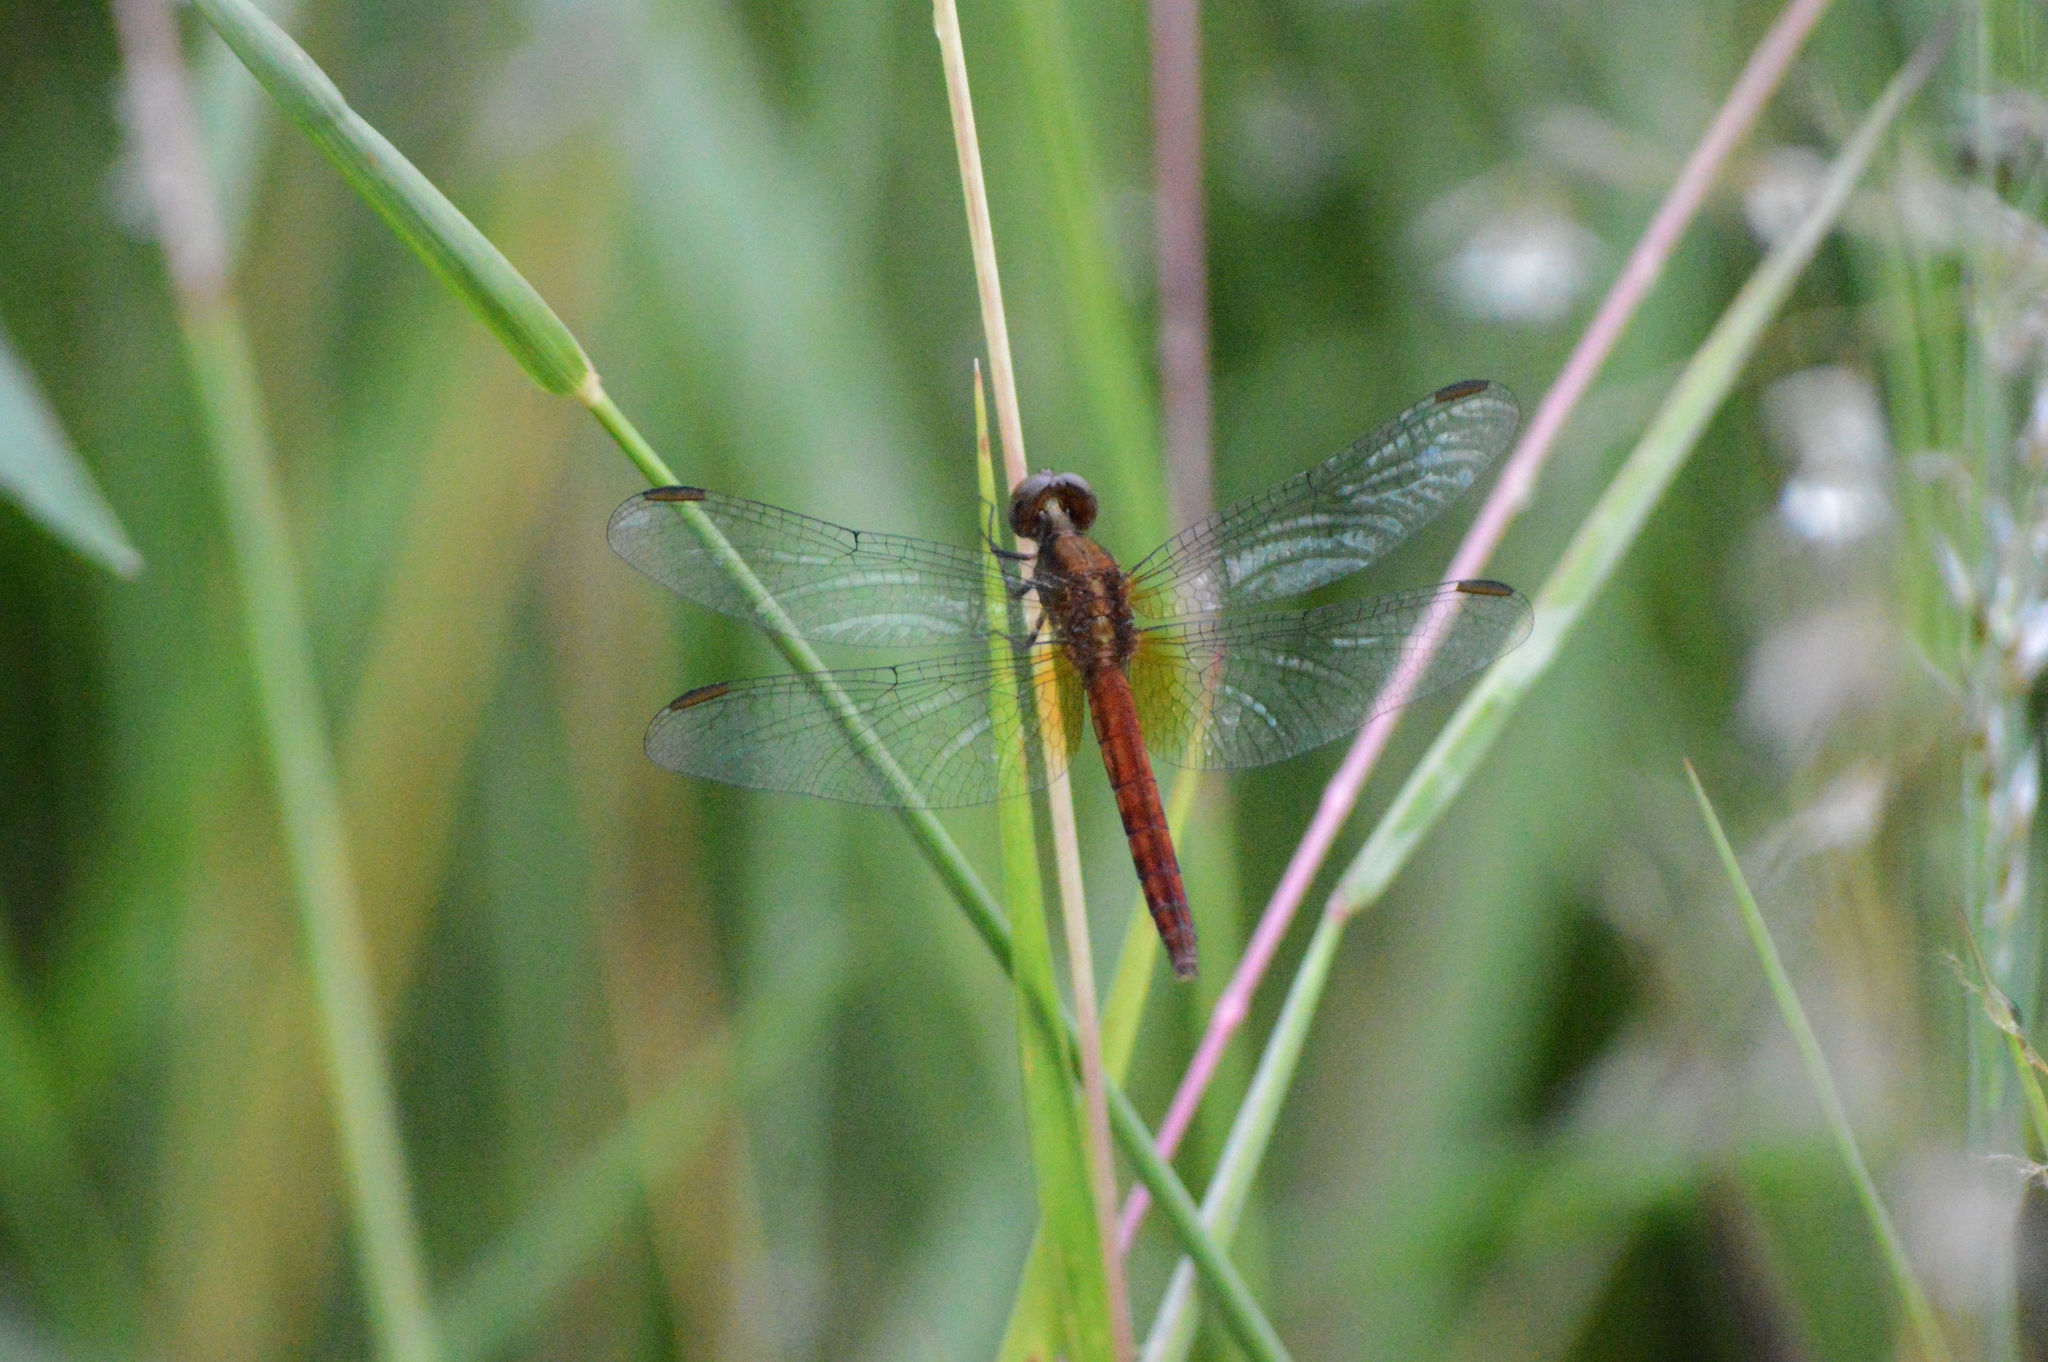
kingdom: Animalia
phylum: Arthropoda
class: Insecta
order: Odonata
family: Libellulidae
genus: Erythrodiplax
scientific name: Erythrodiplax fusca
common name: Red-faced dragonlet
